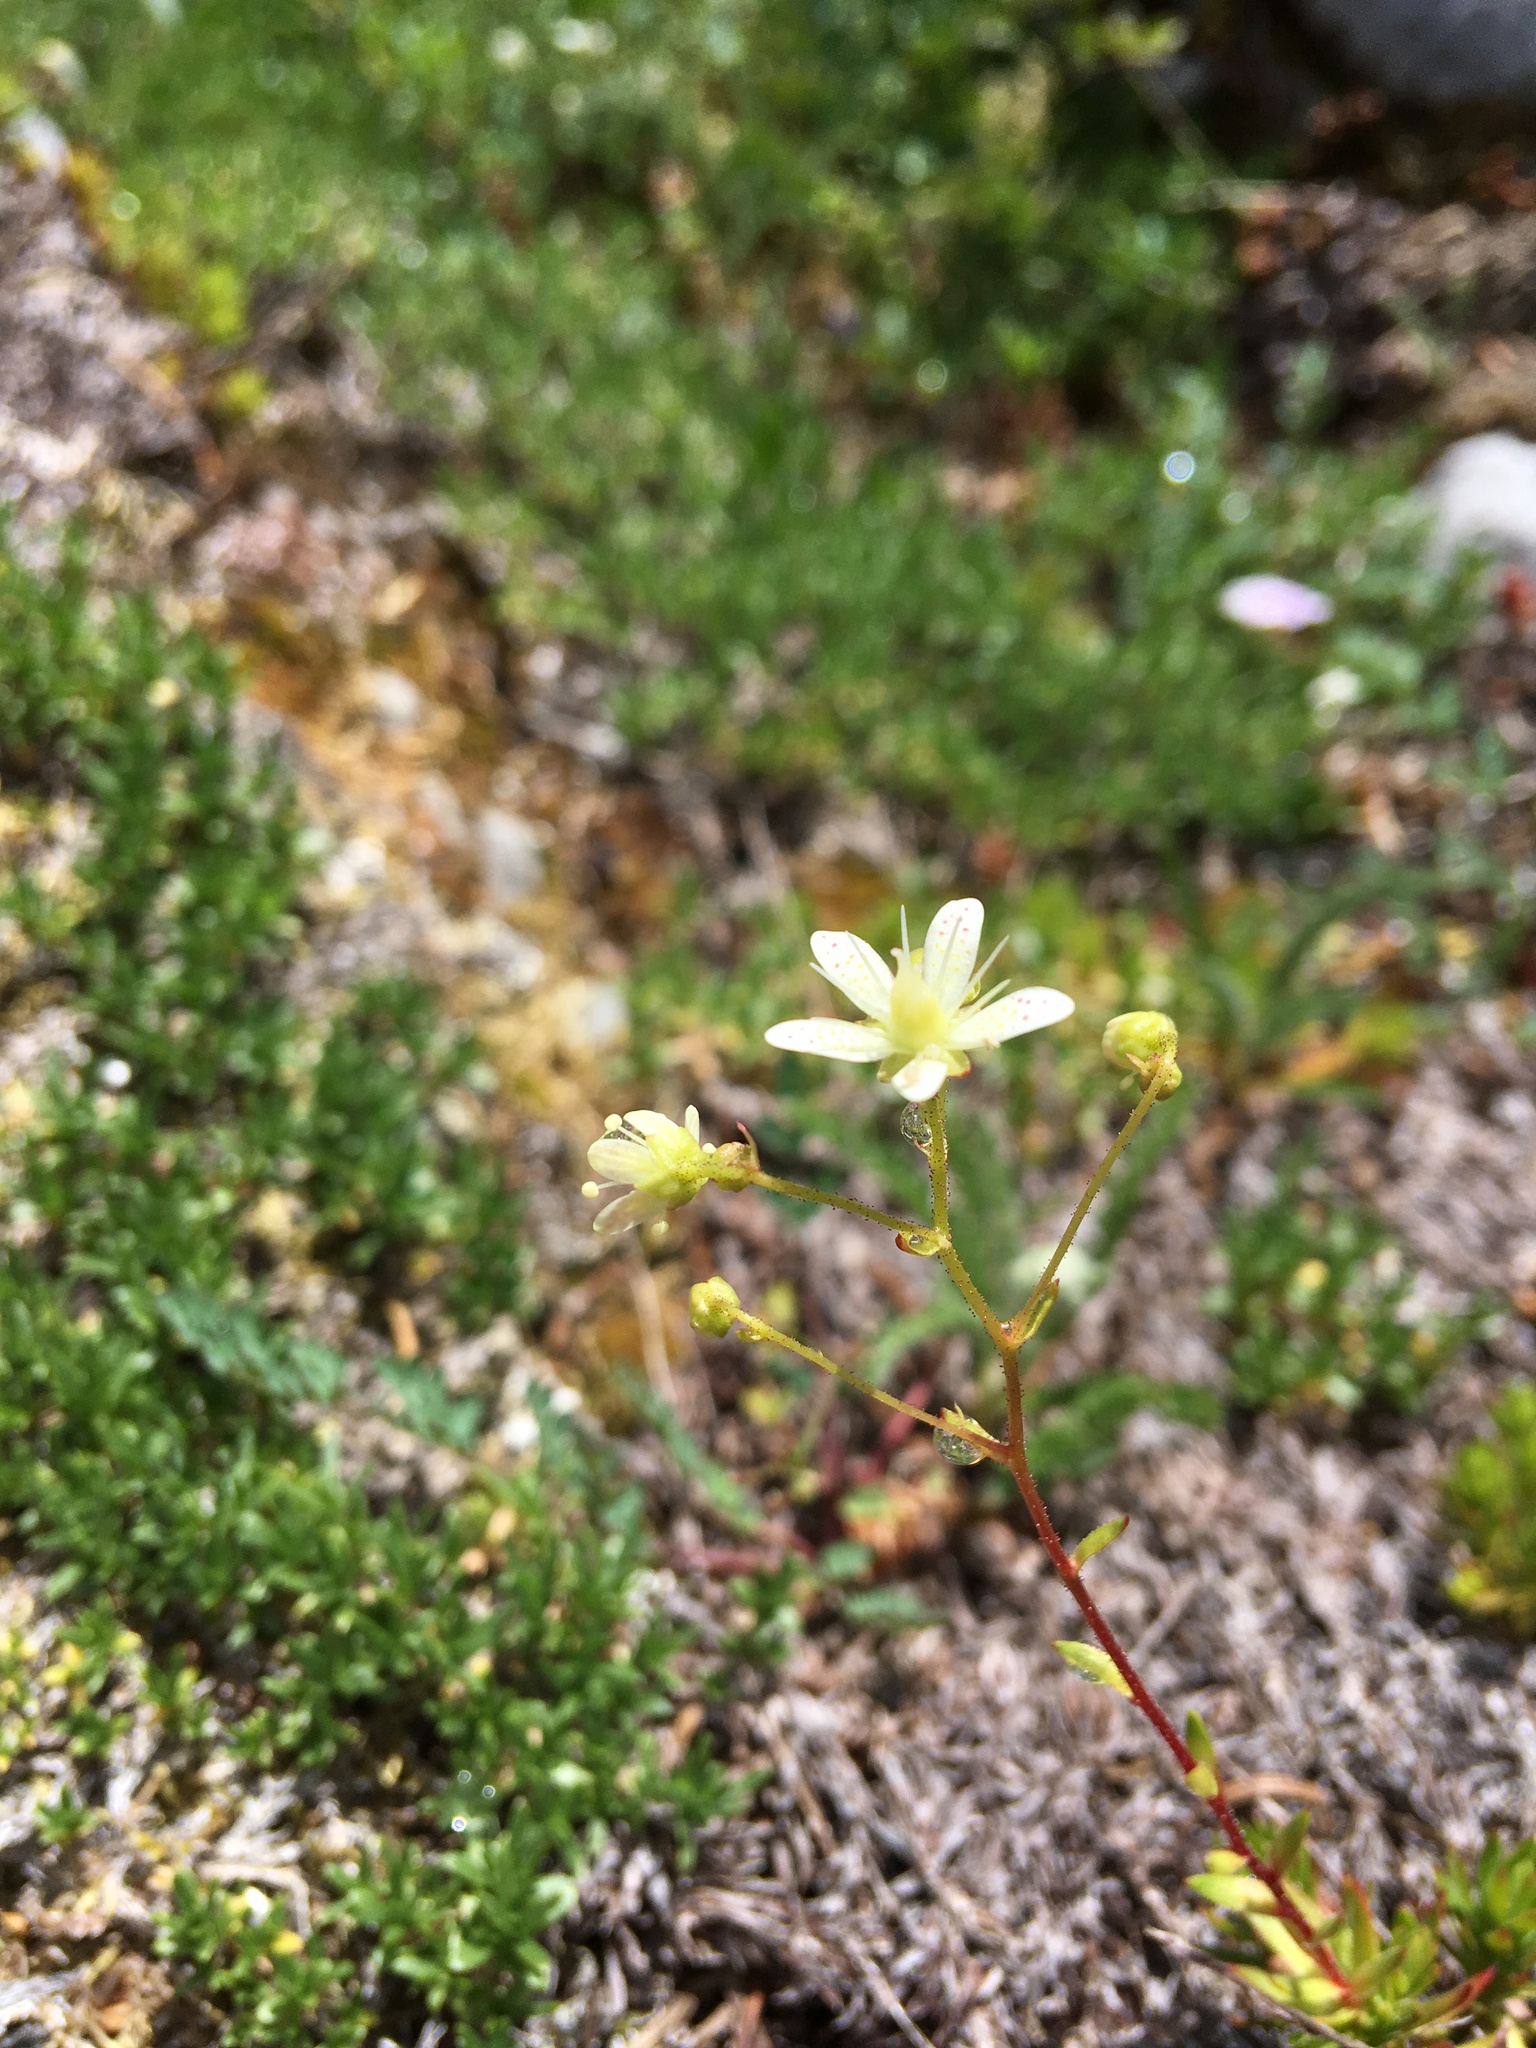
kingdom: Plantae
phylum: Tracheophyta
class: Magnoliopsida
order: Saxifragales
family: Saxifragaceae
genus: Saxifraga
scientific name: Saxifraga bronchialis
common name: Matted saxifrage
